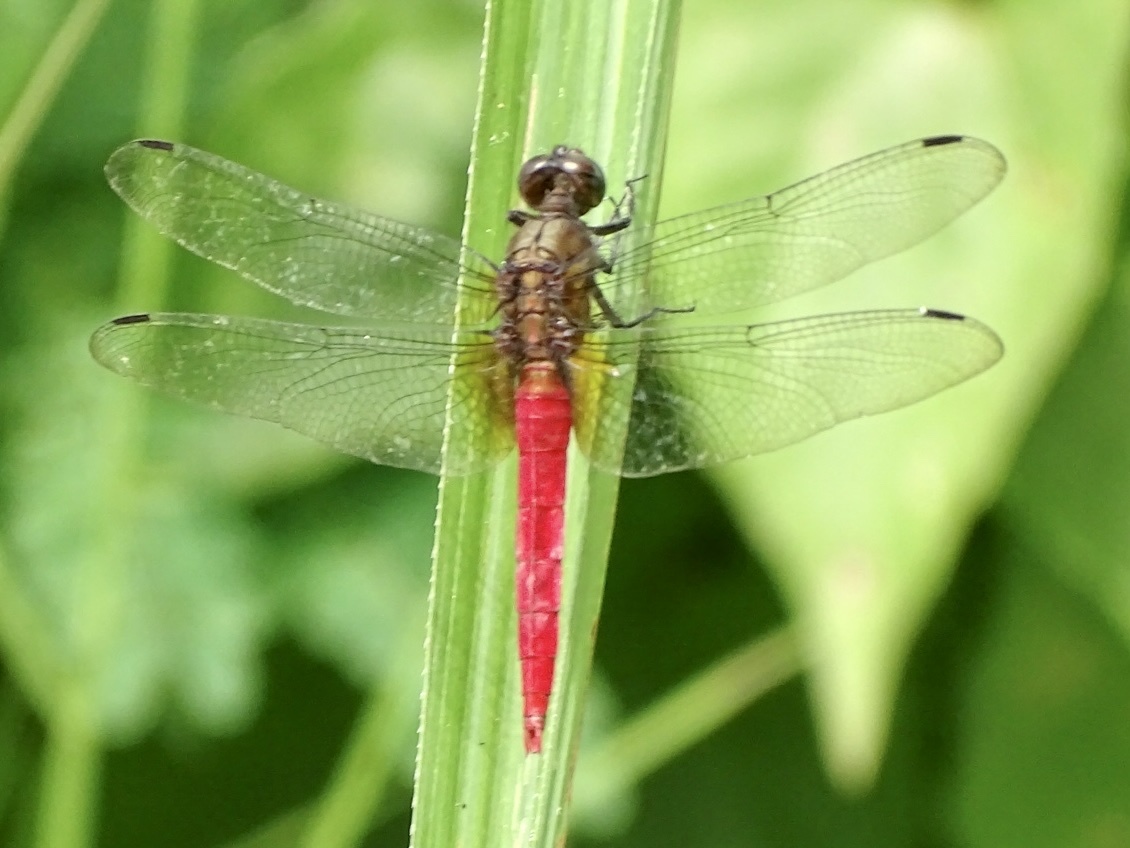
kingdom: Animalia
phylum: Arthropoda
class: Insecta
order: Odonata
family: Libellulidae
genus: Orthetrum
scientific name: Orthetrum chrysis
